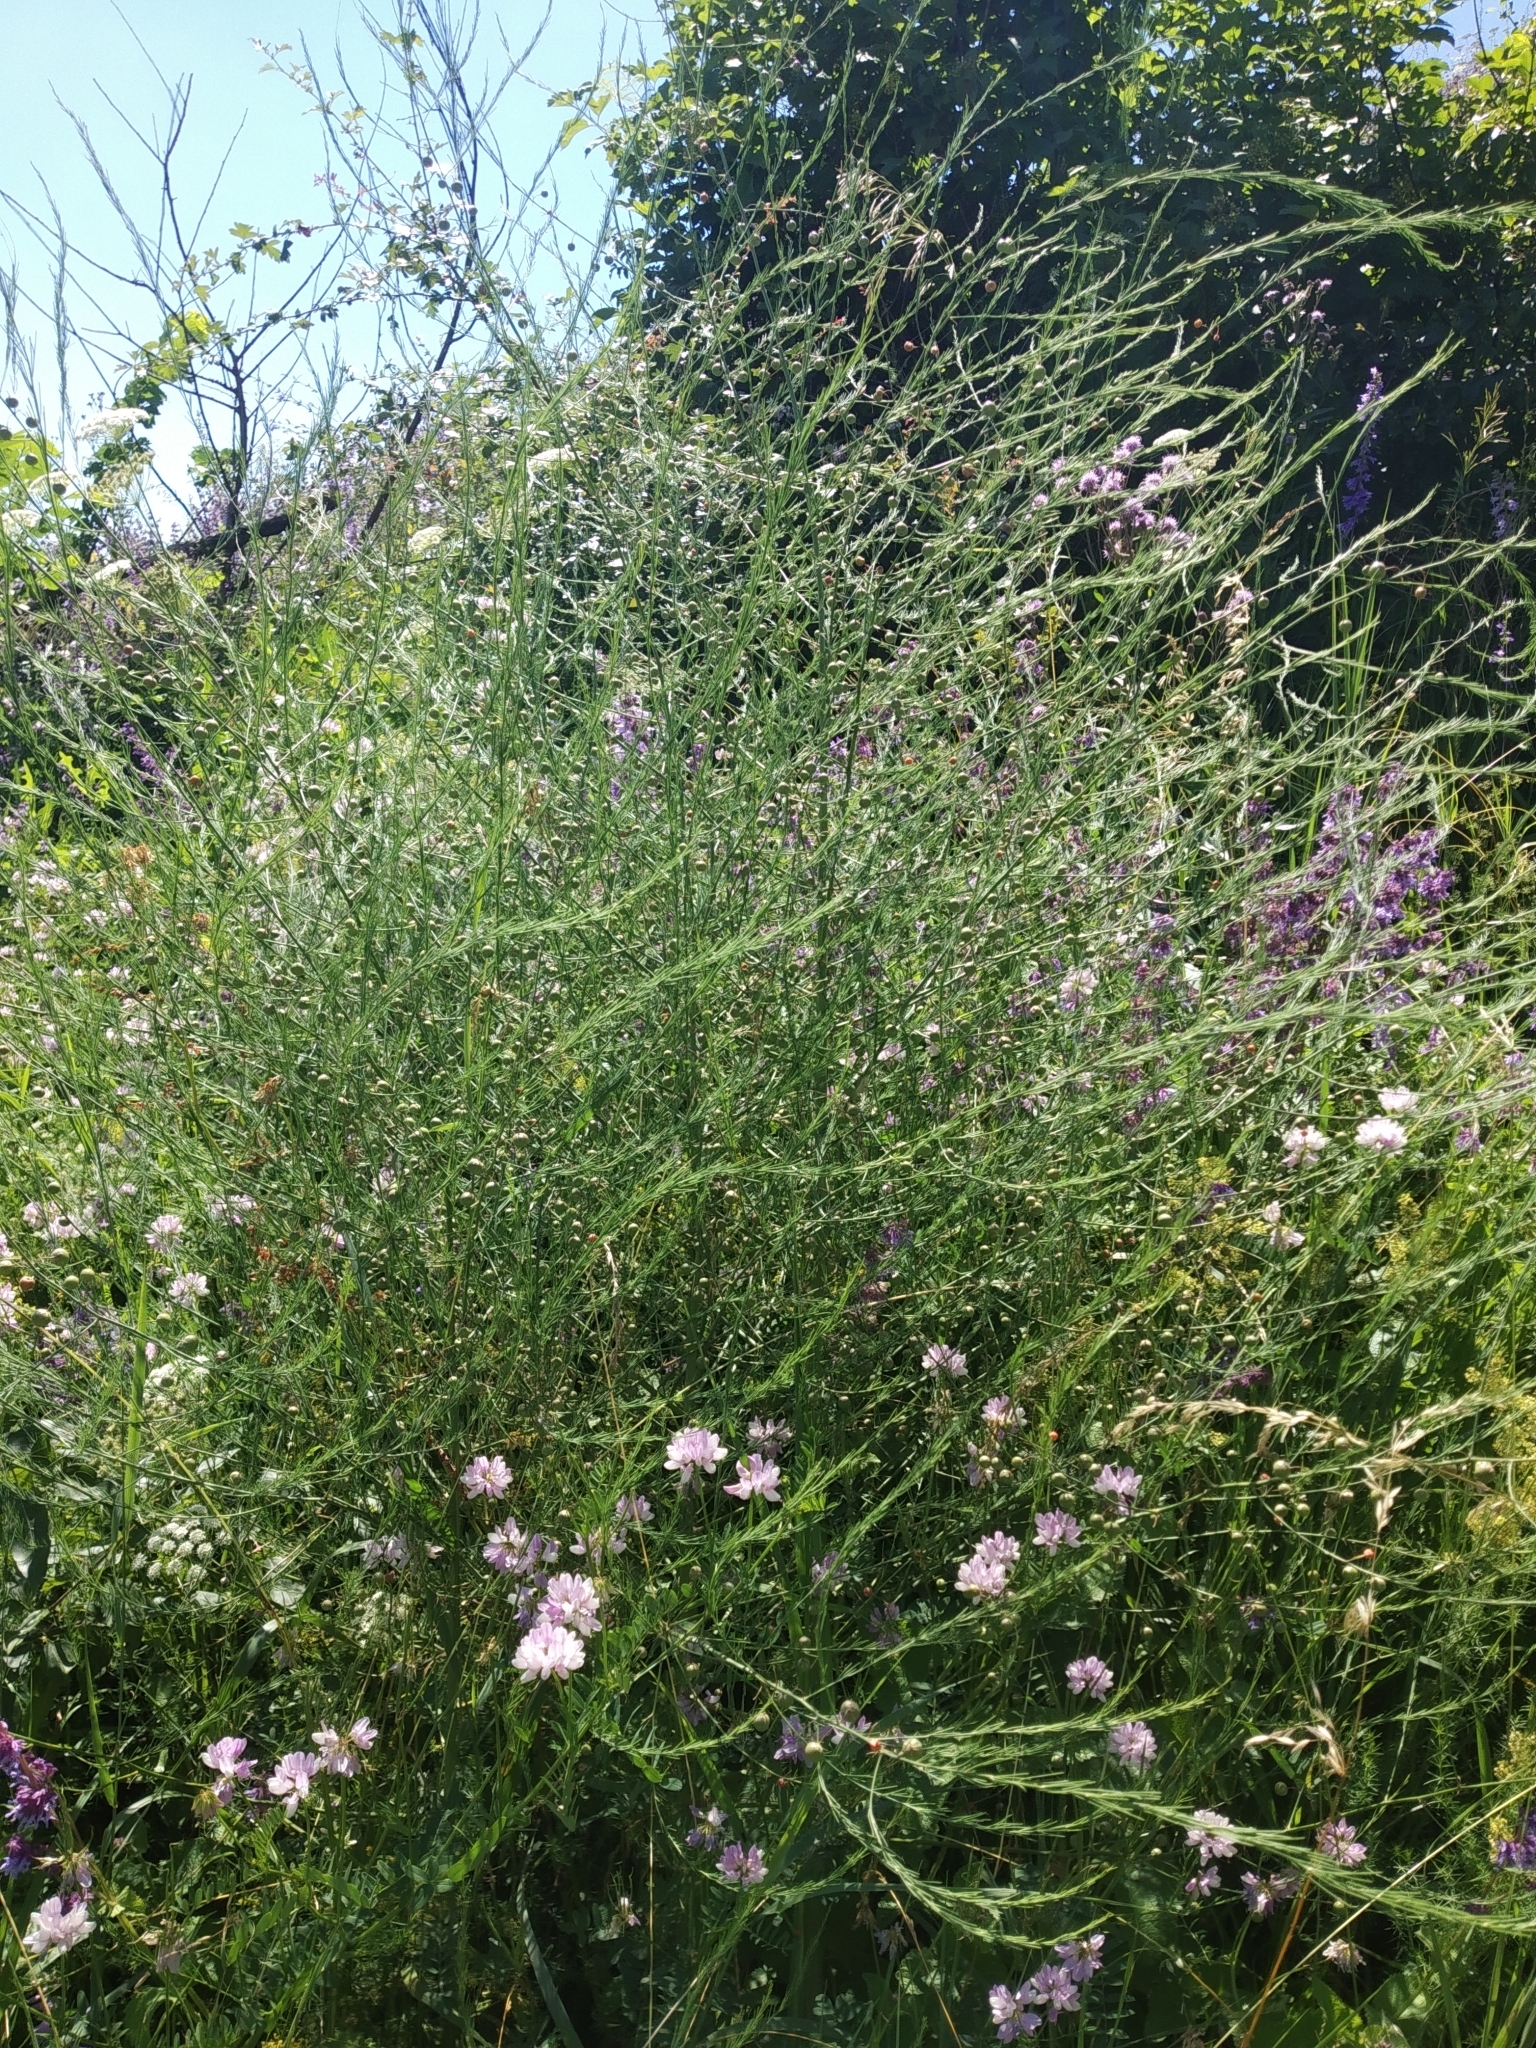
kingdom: Plantae
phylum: Tracheophyta
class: Liliopsida
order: Asparagales
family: Asparagaceae
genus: Asparagus
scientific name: Asparagus officinalis
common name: Garden asparagus
